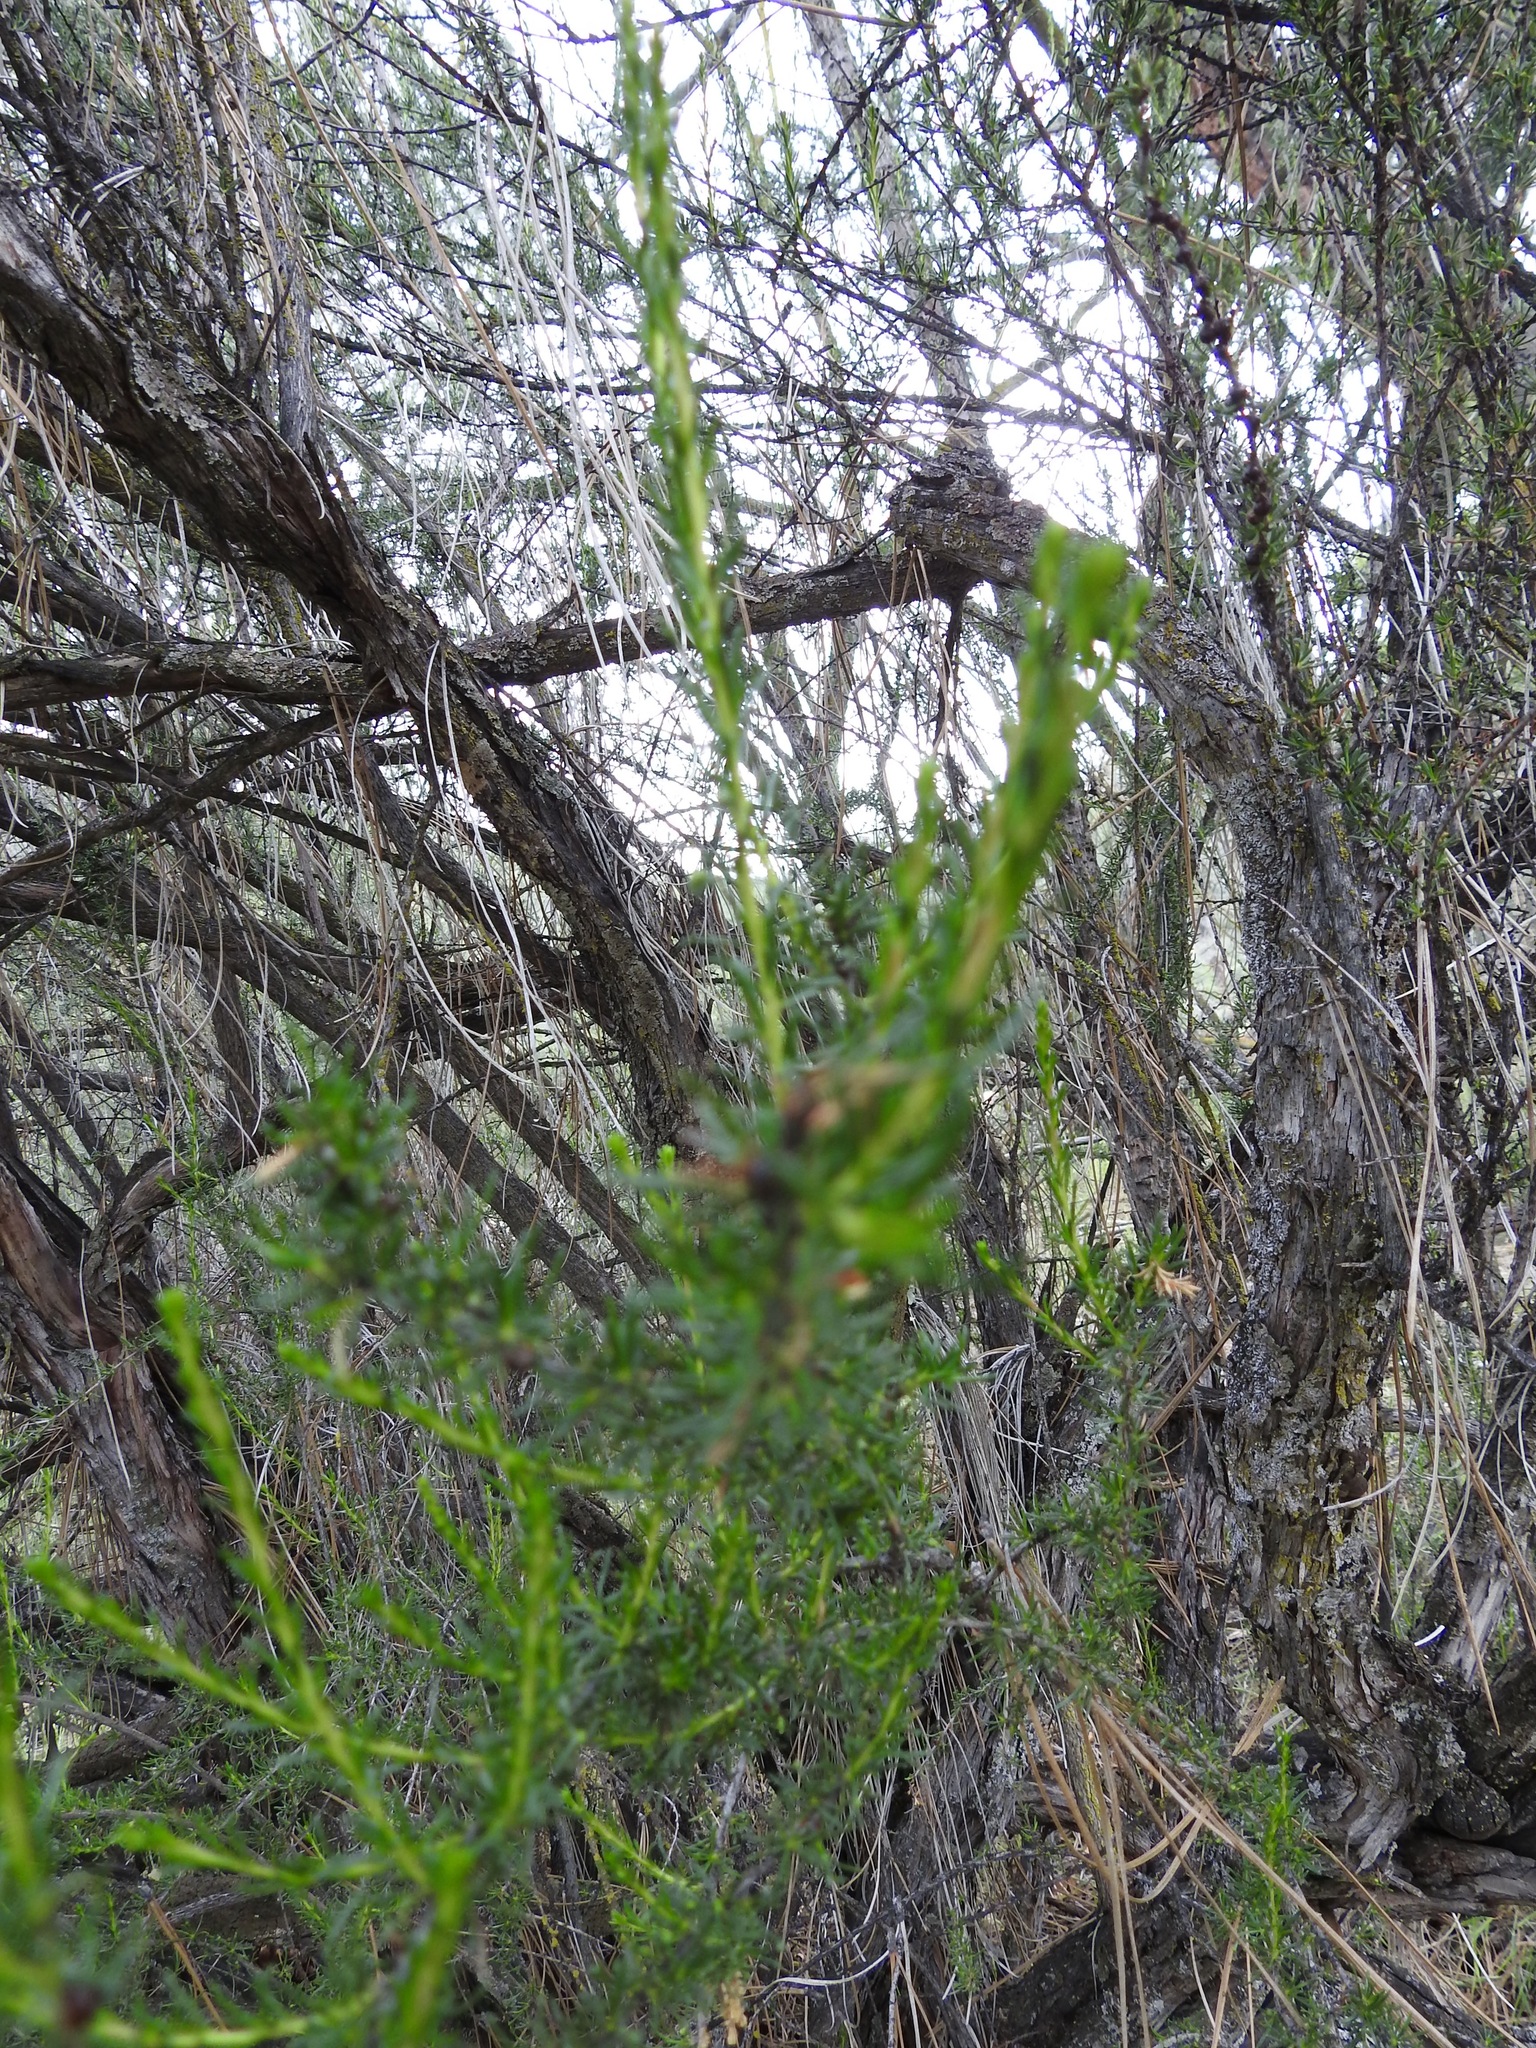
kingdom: Plantae
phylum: Tracheophyta
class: Magnoliopsida
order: Rosales
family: Rosaceae
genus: Adenostoma
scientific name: Adenostoma fasciculatum
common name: Chamise
